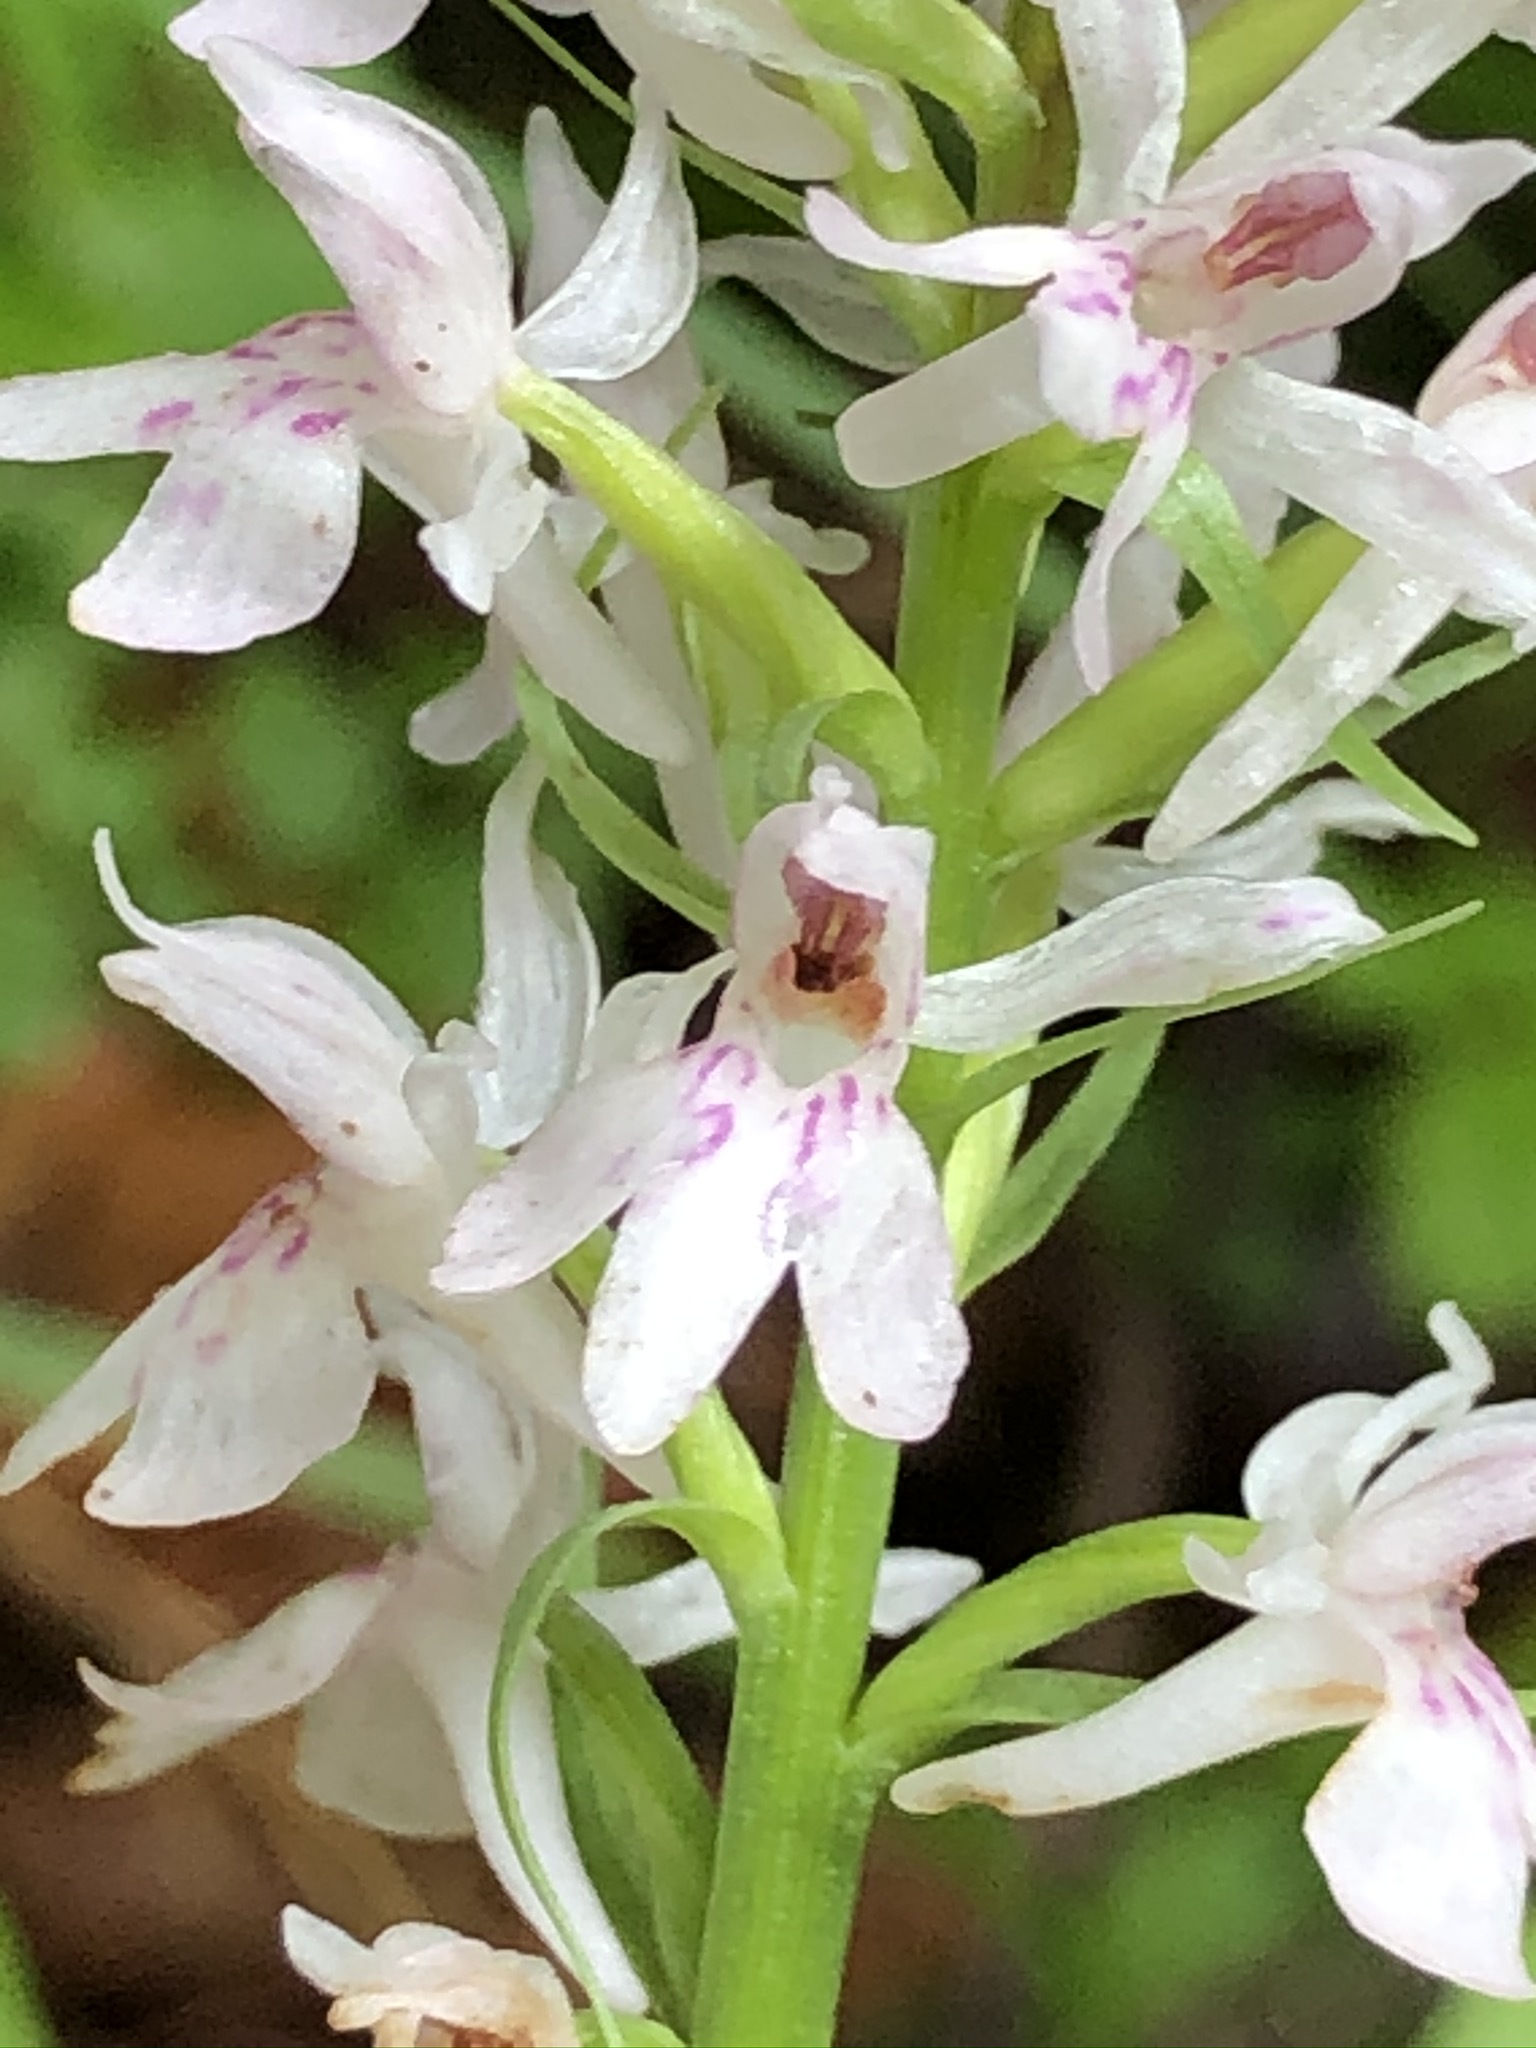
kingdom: Plantae
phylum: Tracheophyta
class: Liliopsida
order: Asparagales
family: Orchidaceae
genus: Dactylorhiza
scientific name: Dactylorhiza maculata
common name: Heath spotted-orchid
